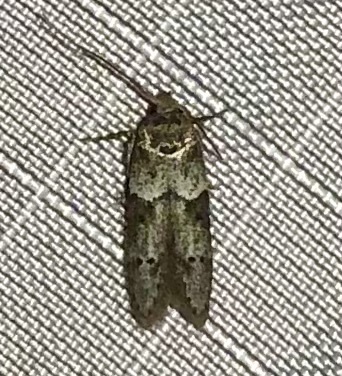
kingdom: Animalia
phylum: Arthropoda
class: Insecta
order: Lepidoptera
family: Blastobasidae
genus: Blastobasis
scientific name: Blastobasis glandulella
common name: Acorn moth
